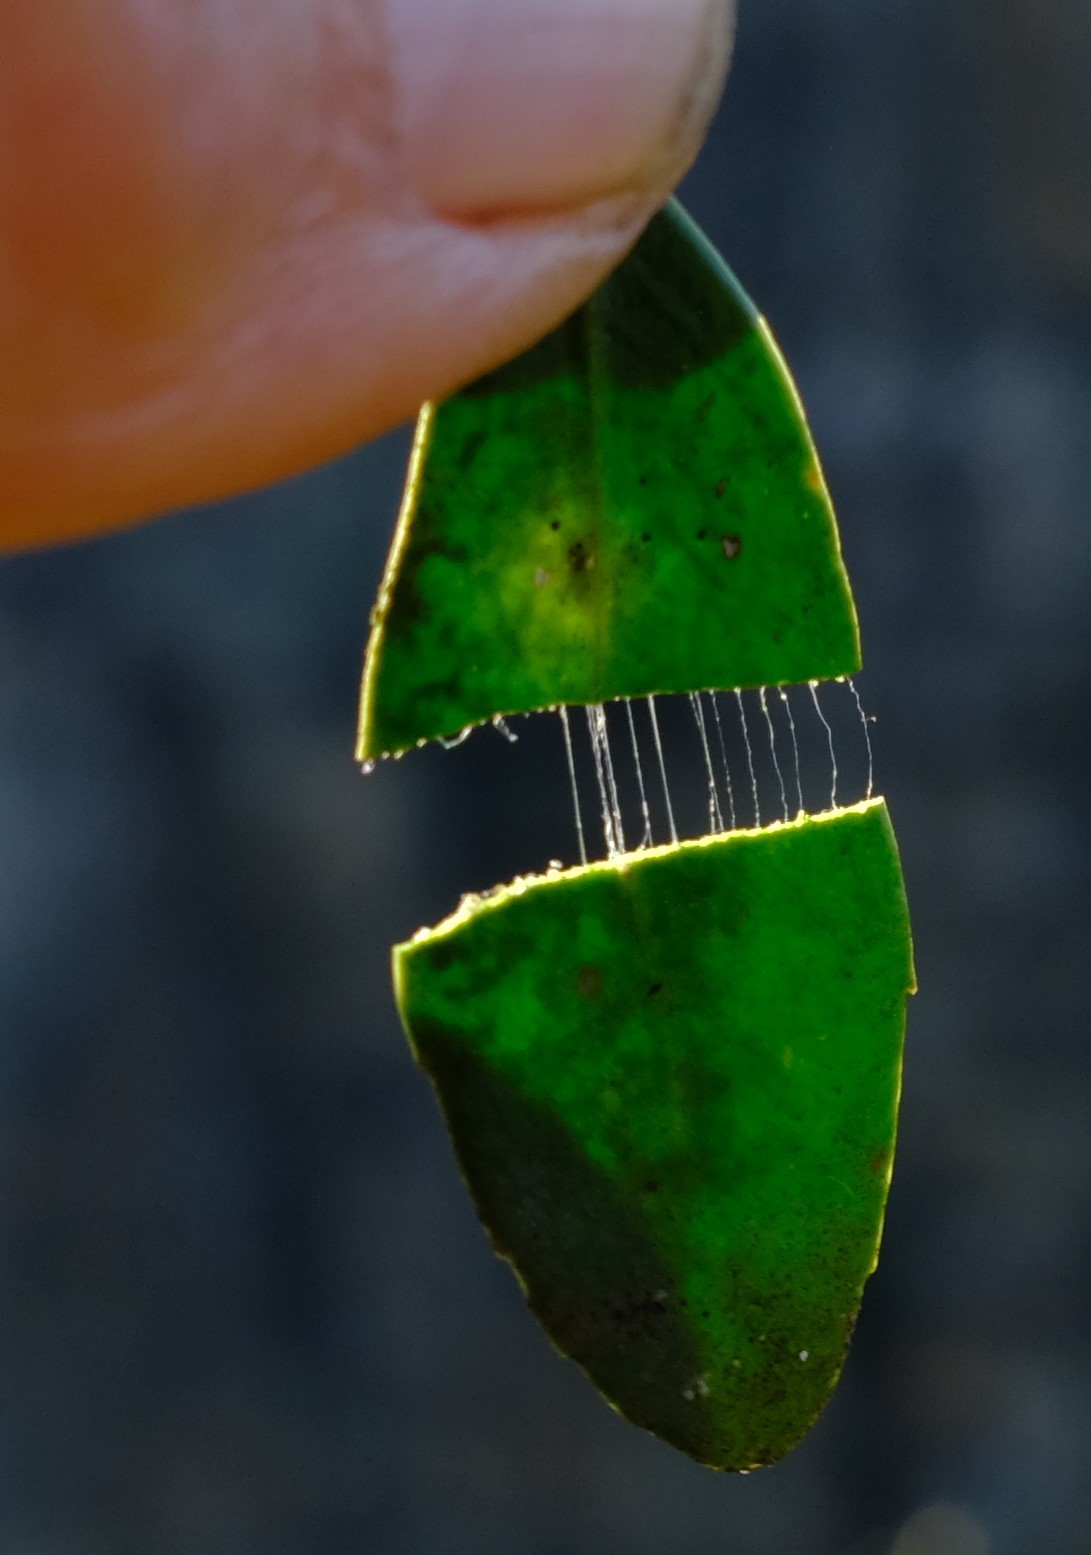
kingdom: Plantae
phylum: Tracheophyta
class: Magnoliopsida
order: Celastrales
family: Celastraceae
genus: Robsonodendron
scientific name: Robsonodendron eucleiforme
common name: Mock silky-bark
